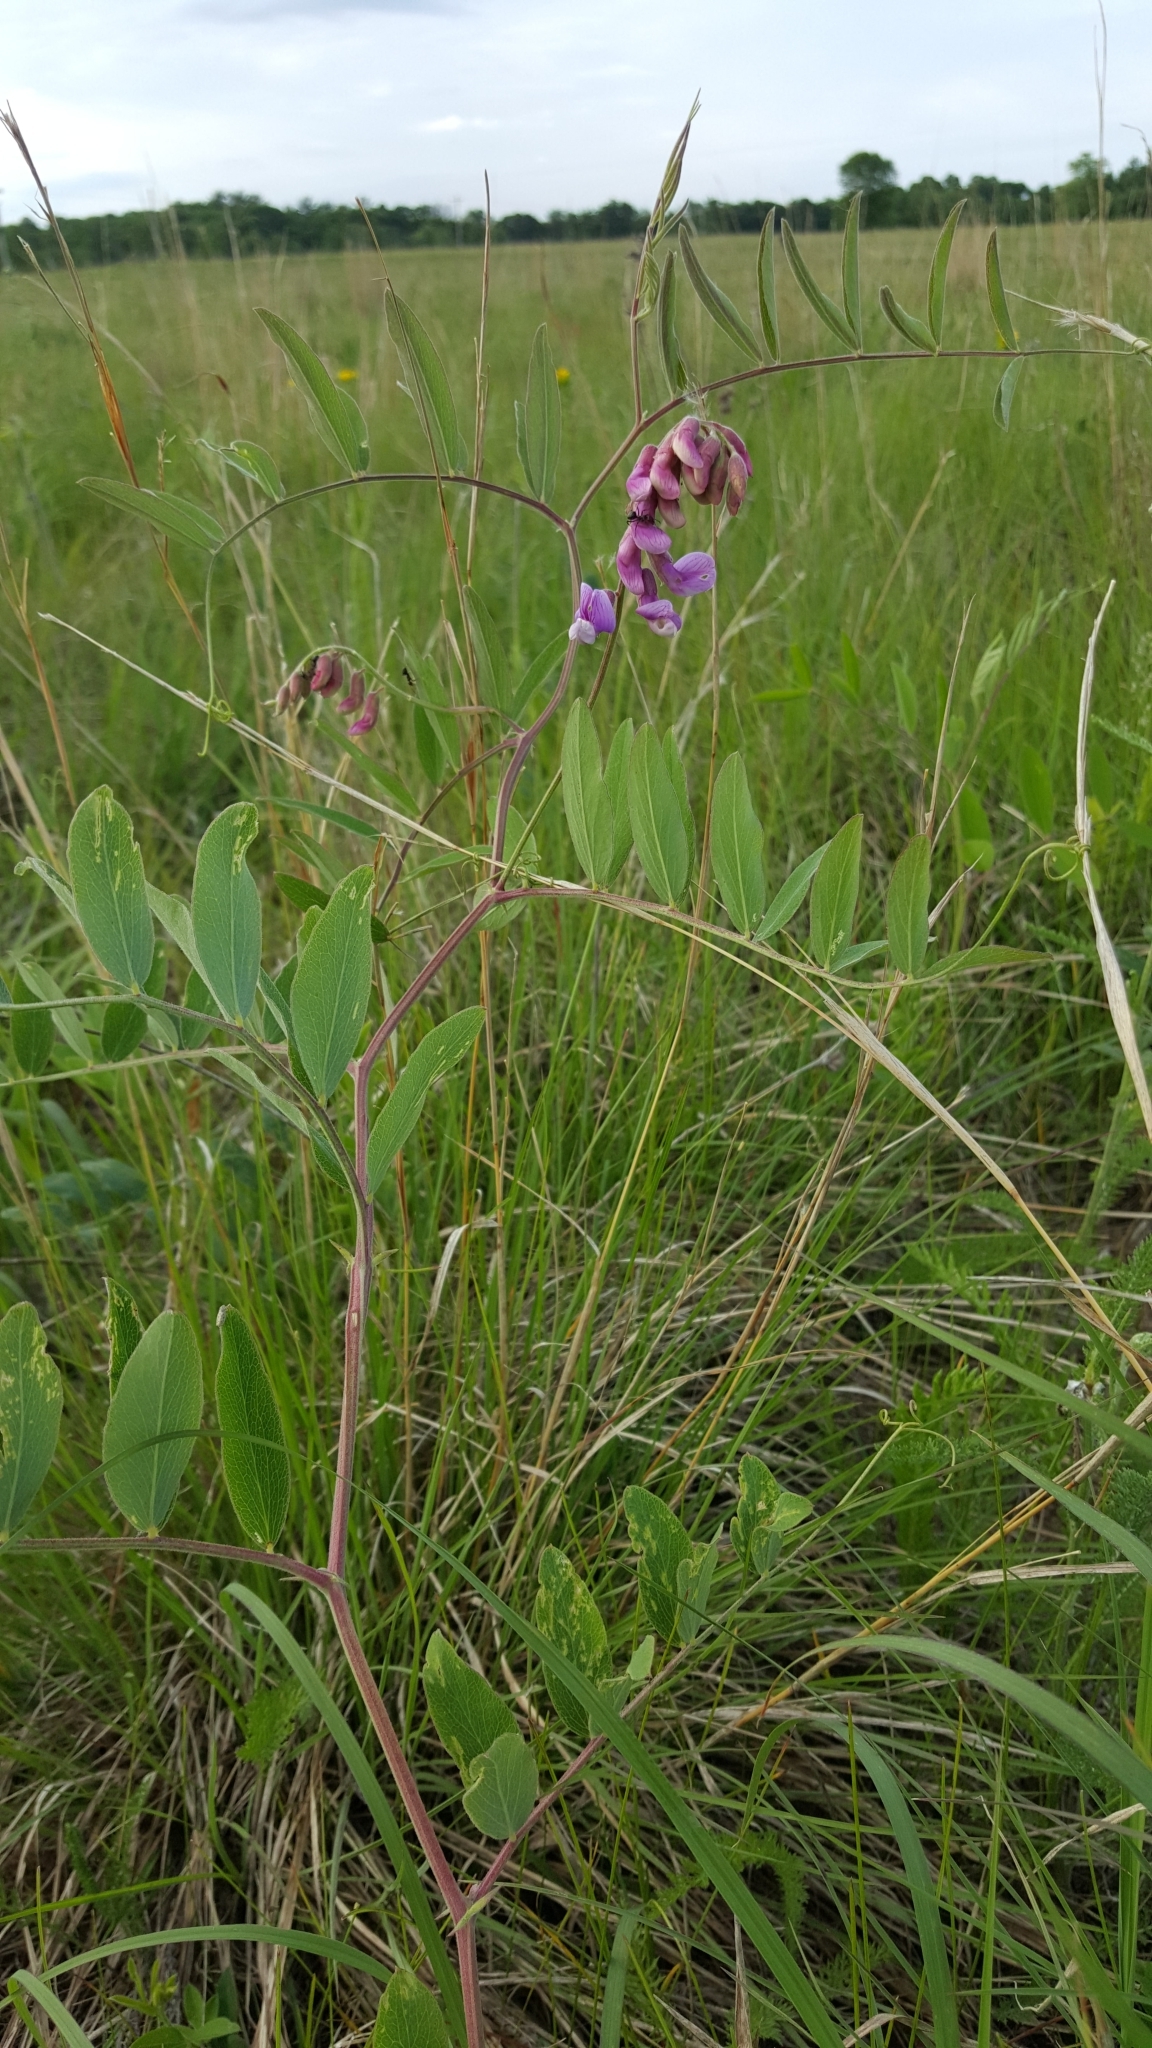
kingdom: Plantae
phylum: Tracheophyta
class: Magnoliopsida
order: Fabales
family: Fabaceae
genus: Lathyrus
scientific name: Lathyrus palustris
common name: Marsh pea
